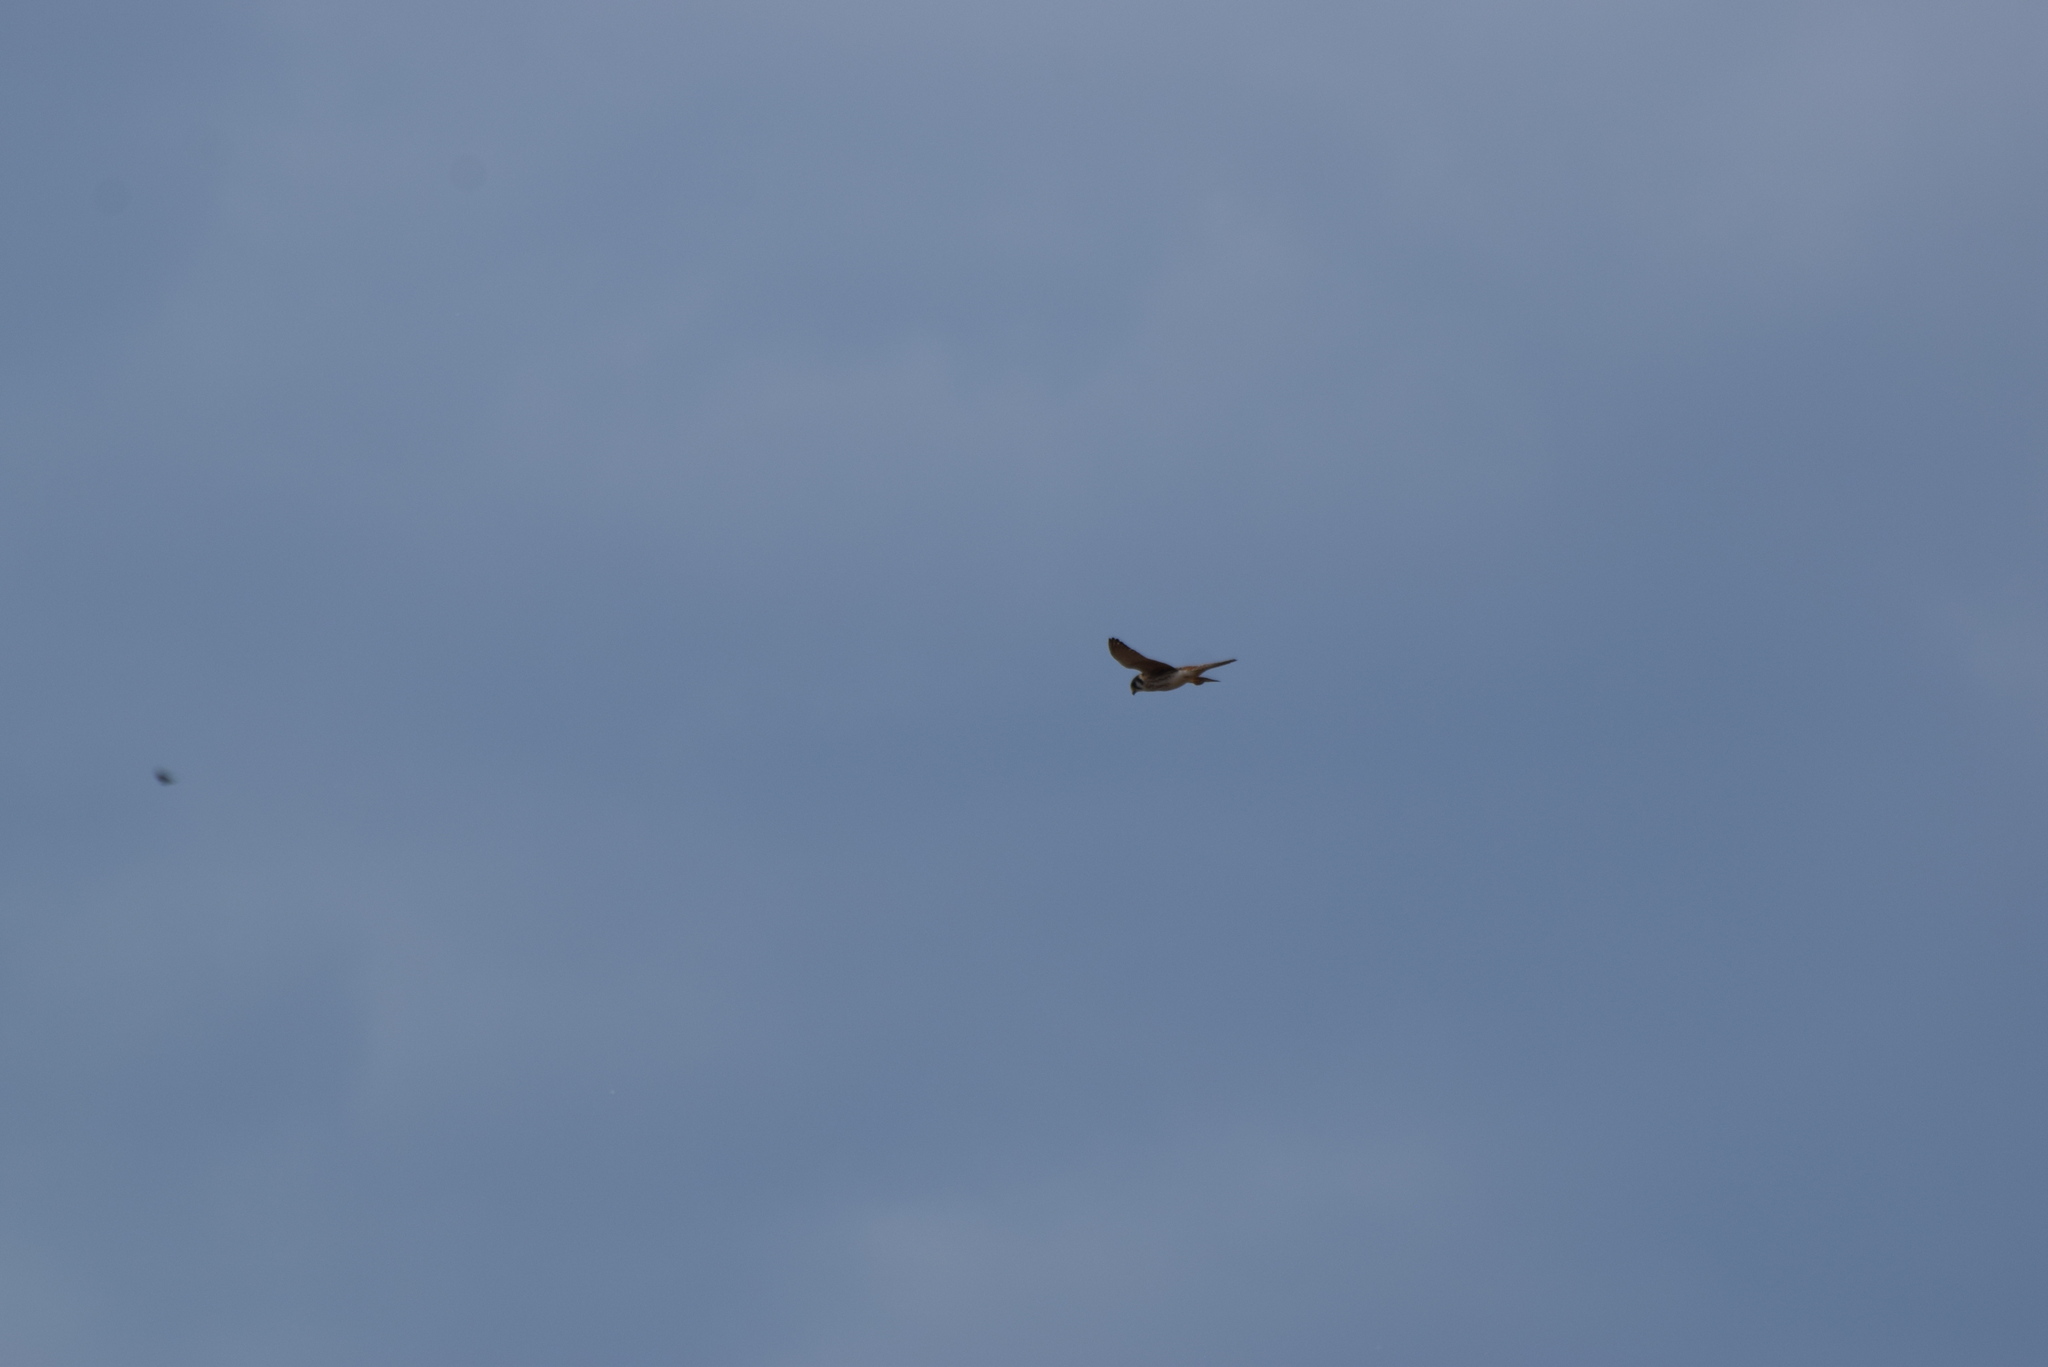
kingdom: Animalia
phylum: Chordata
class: Aves
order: Falconiformes
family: Falconidae
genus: Falco
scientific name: Falco sparverius
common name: American kestrel
